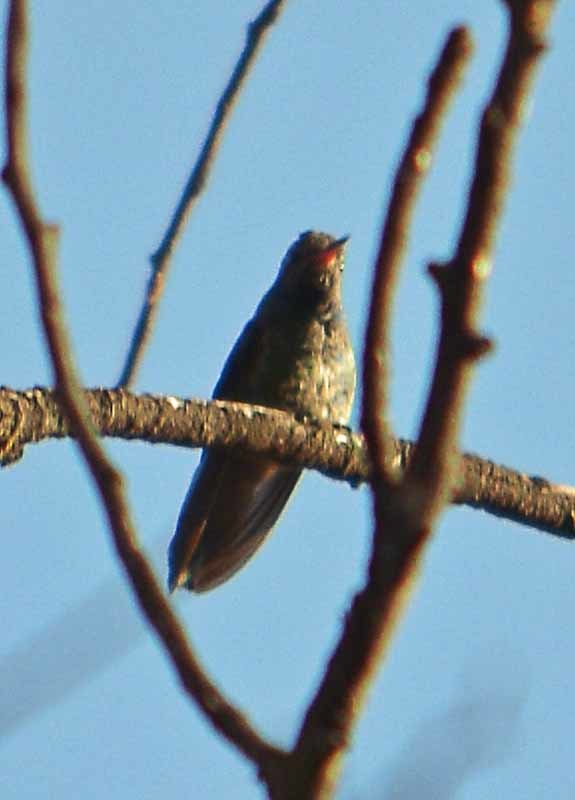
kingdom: Animalia
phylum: Chordata
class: Aves
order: Apodiformes
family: Trochilidae
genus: Saucerottia
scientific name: Saucerottia beryllina
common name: Berylline hummingbird
